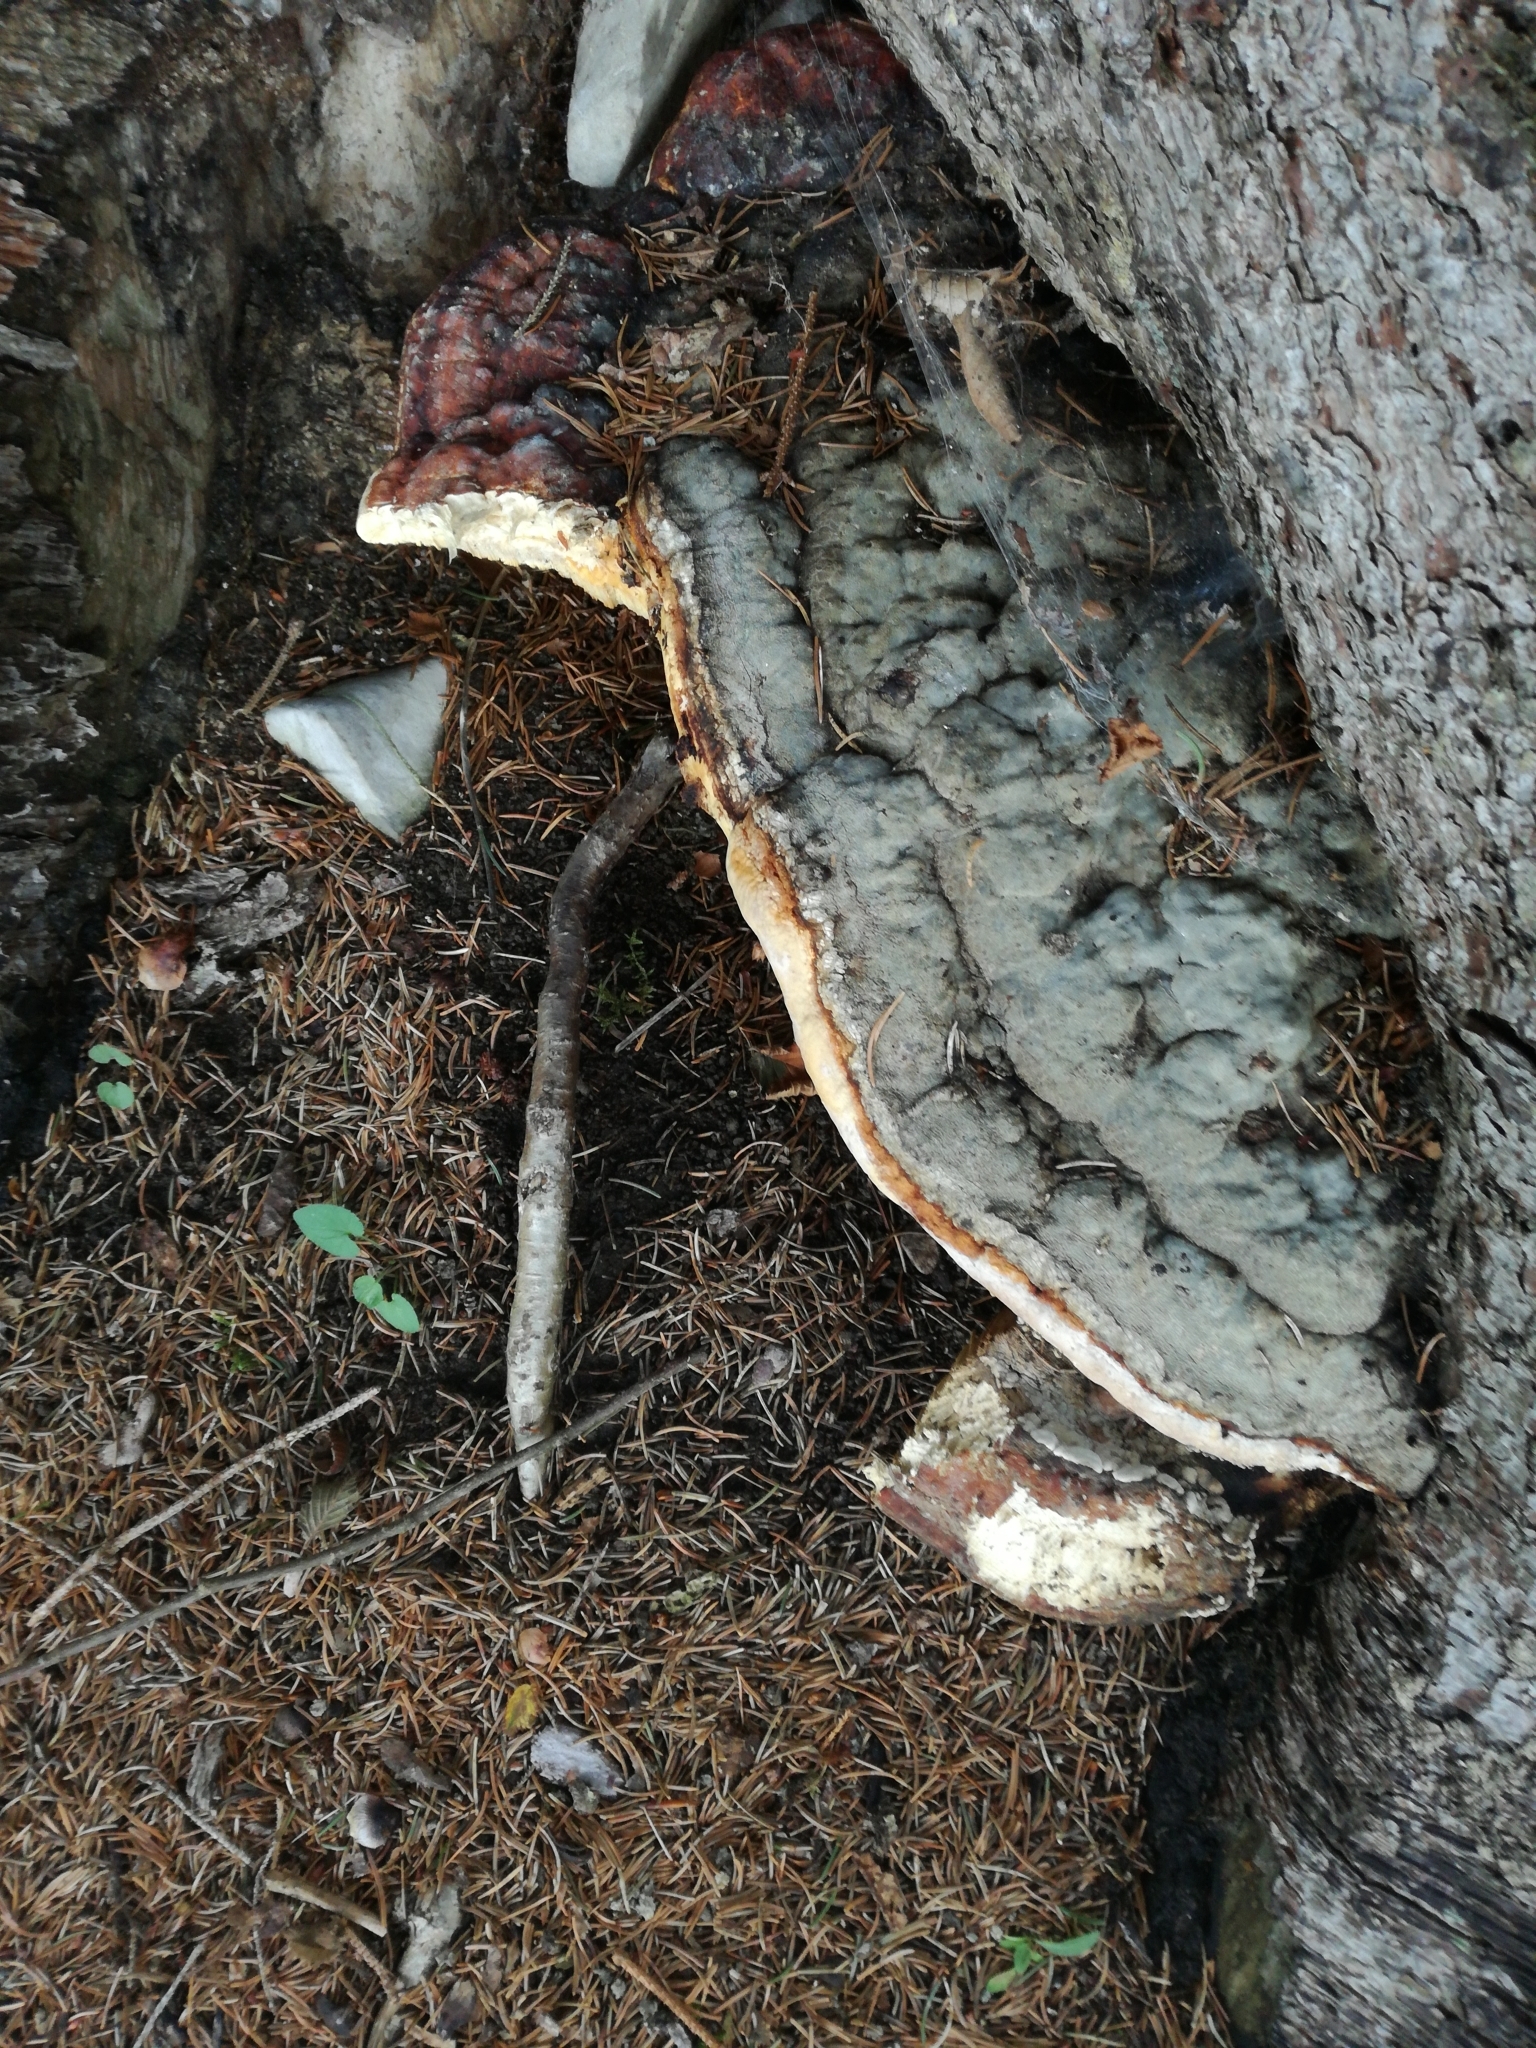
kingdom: Fungi
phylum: Basidiomycota
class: Agaricomycetes
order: Polyporales
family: Fomitopsidaceae
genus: Fomitopsis
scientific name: Fomitopsis pinicola
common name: Red-belted bracket
